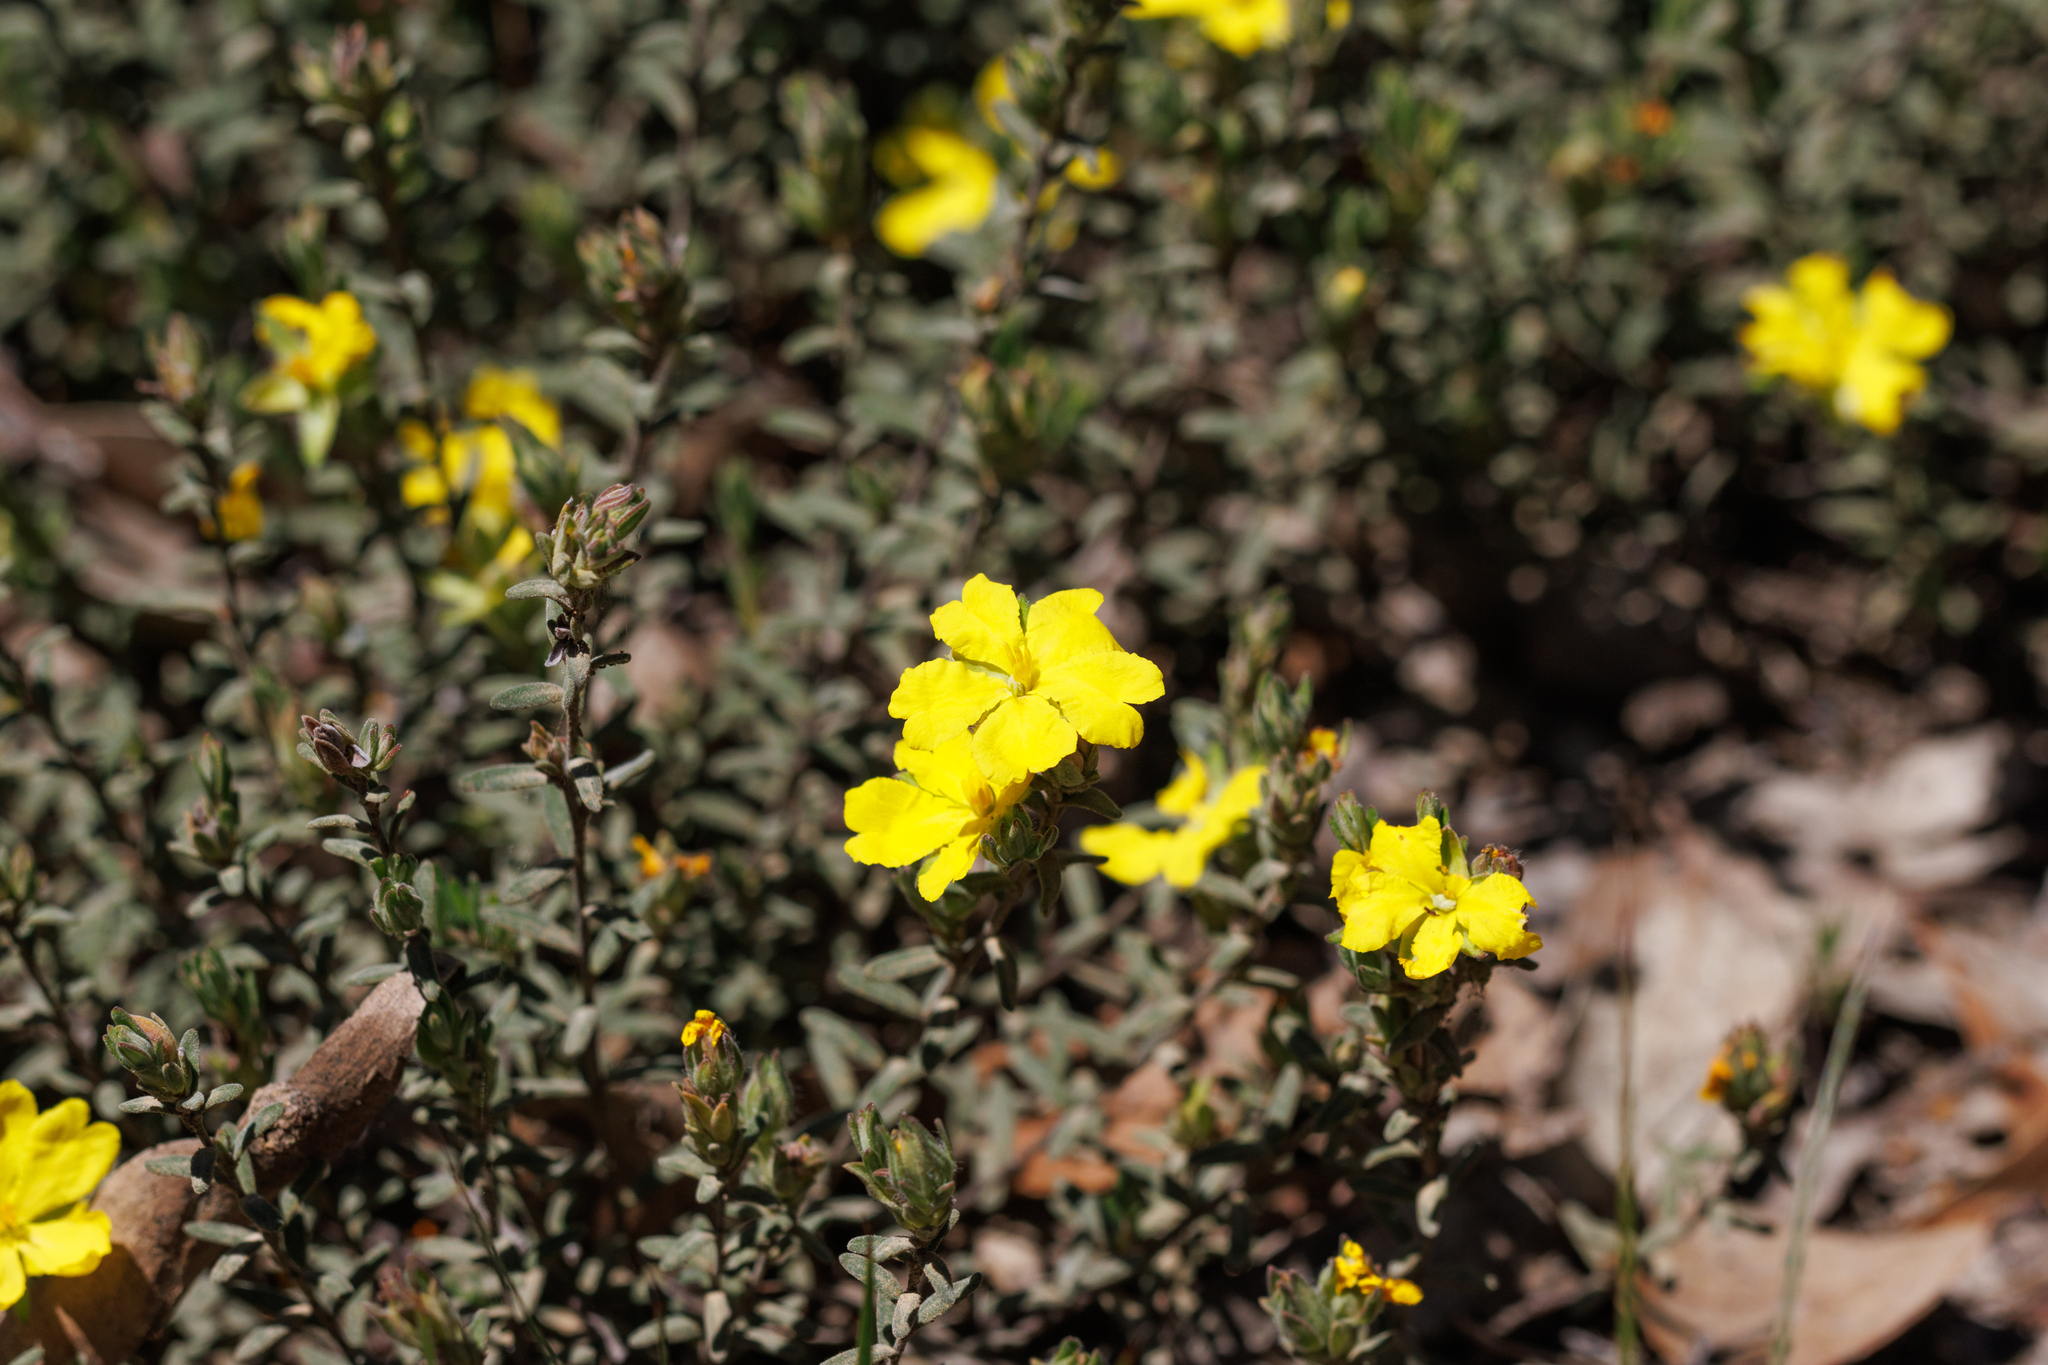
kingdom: Plantae
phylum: Tracheophyta
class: Magnoliopsida
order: Dilleniales
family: Dilleniaceae
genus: Hibbertia
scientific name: Hibbertia crinita
